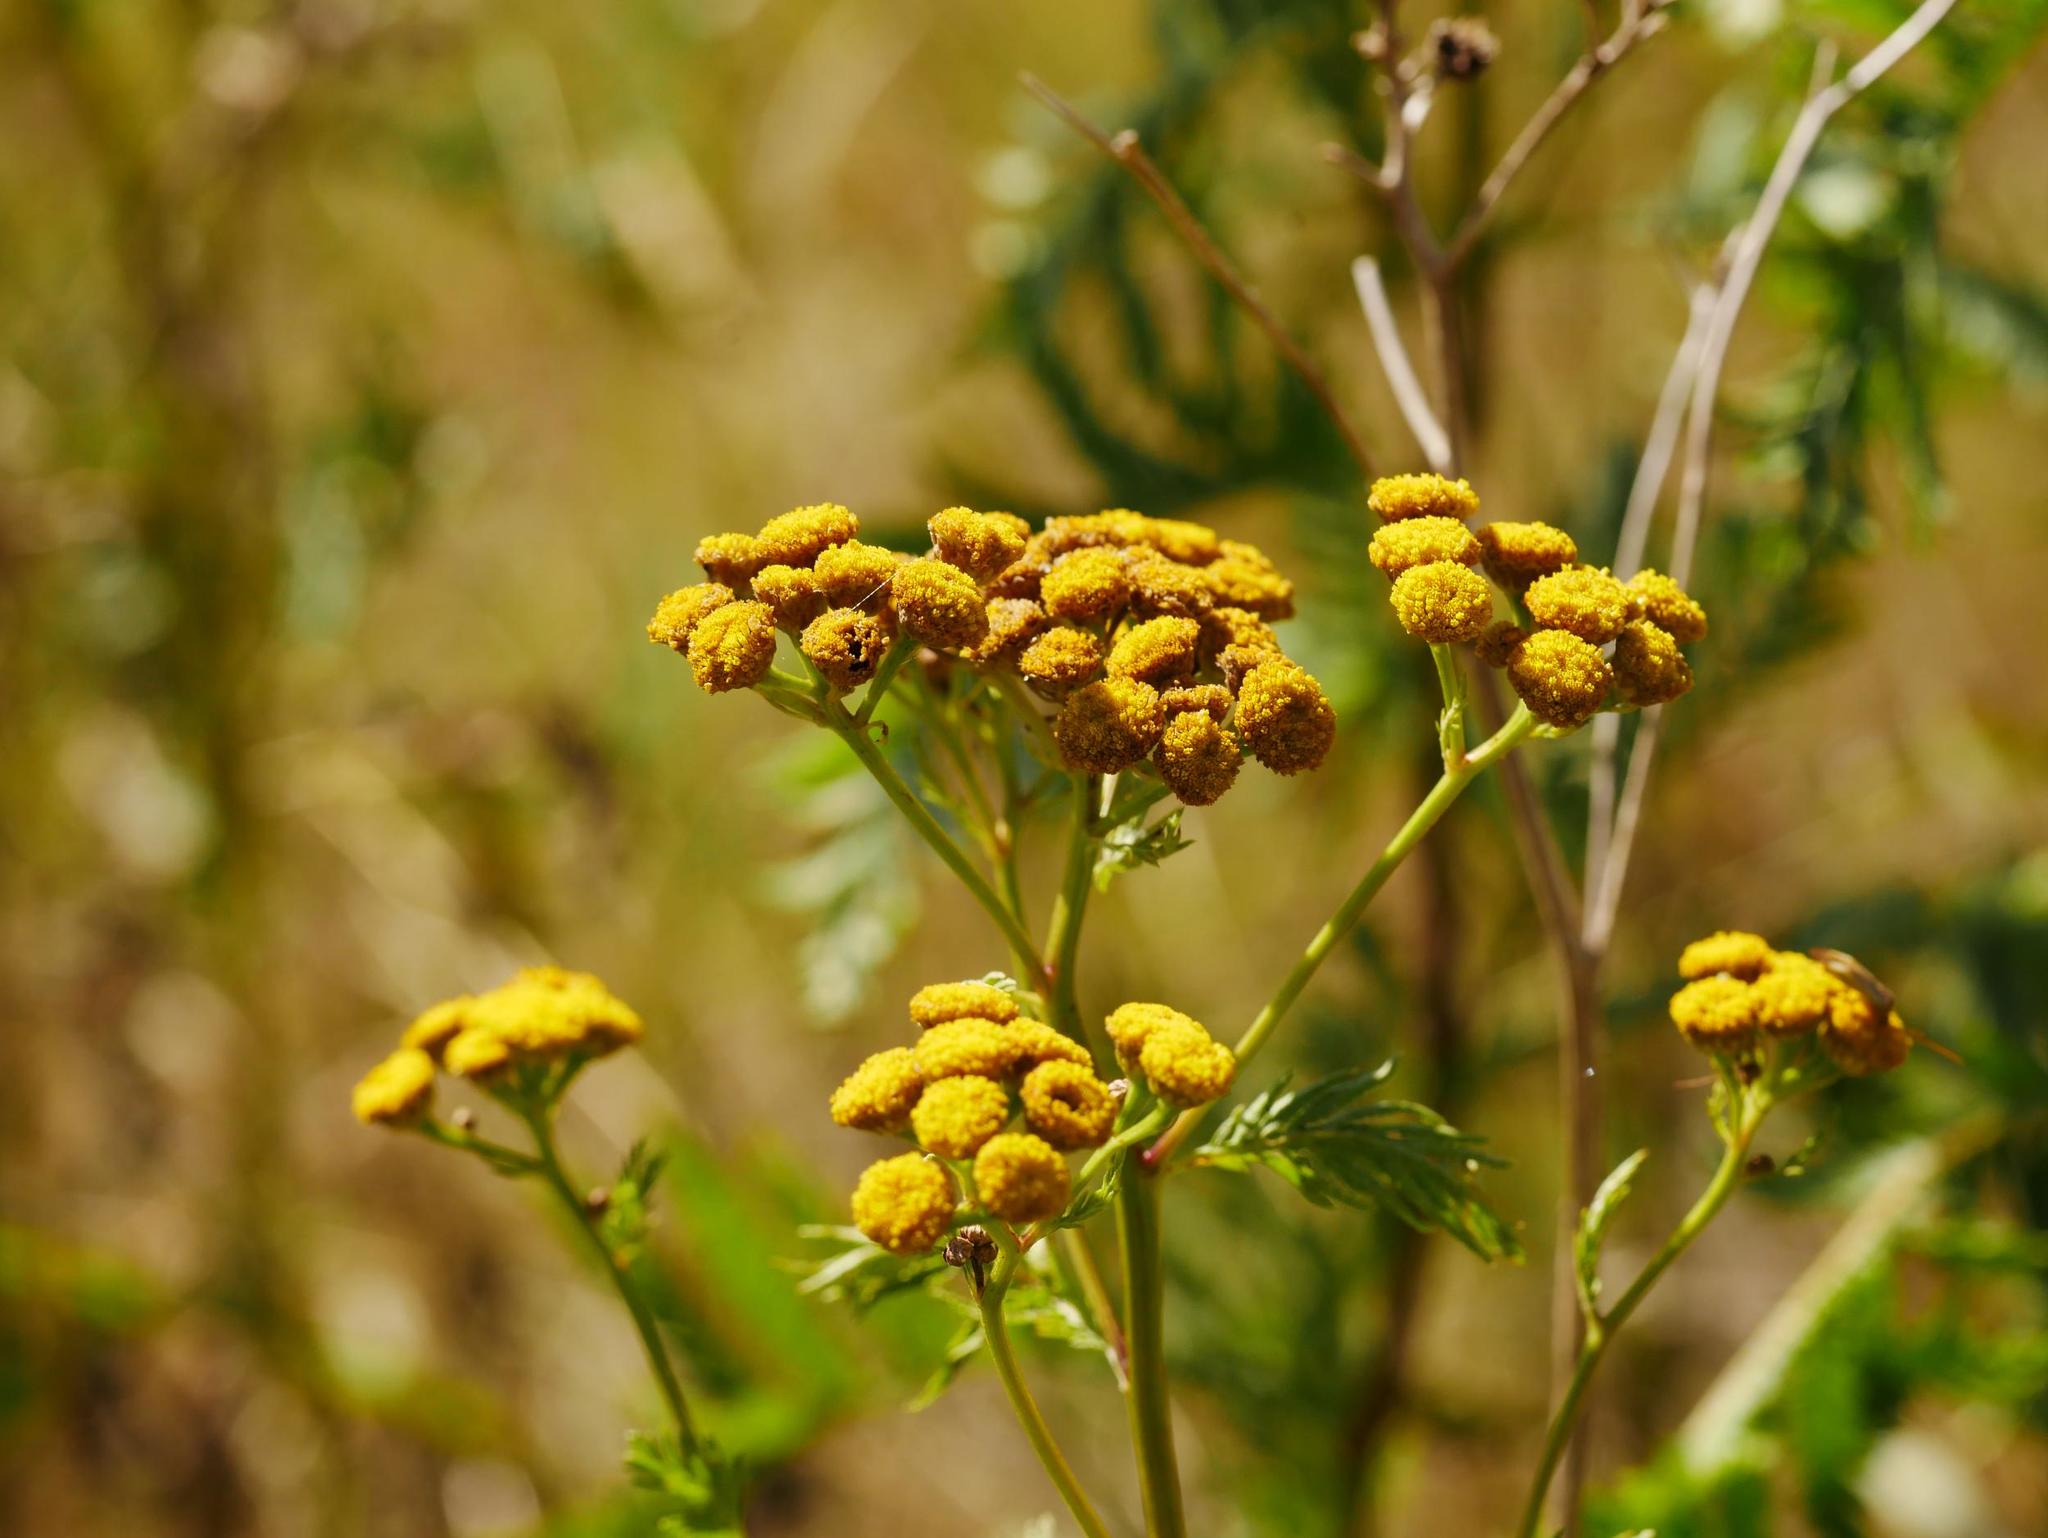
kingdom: Plantae
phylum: Tracheophyta
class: Magnoliopsida
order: Asterales
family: Asteraceae
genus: Tanacetum
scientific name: Tanacetum vulgare
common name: Common tansy
